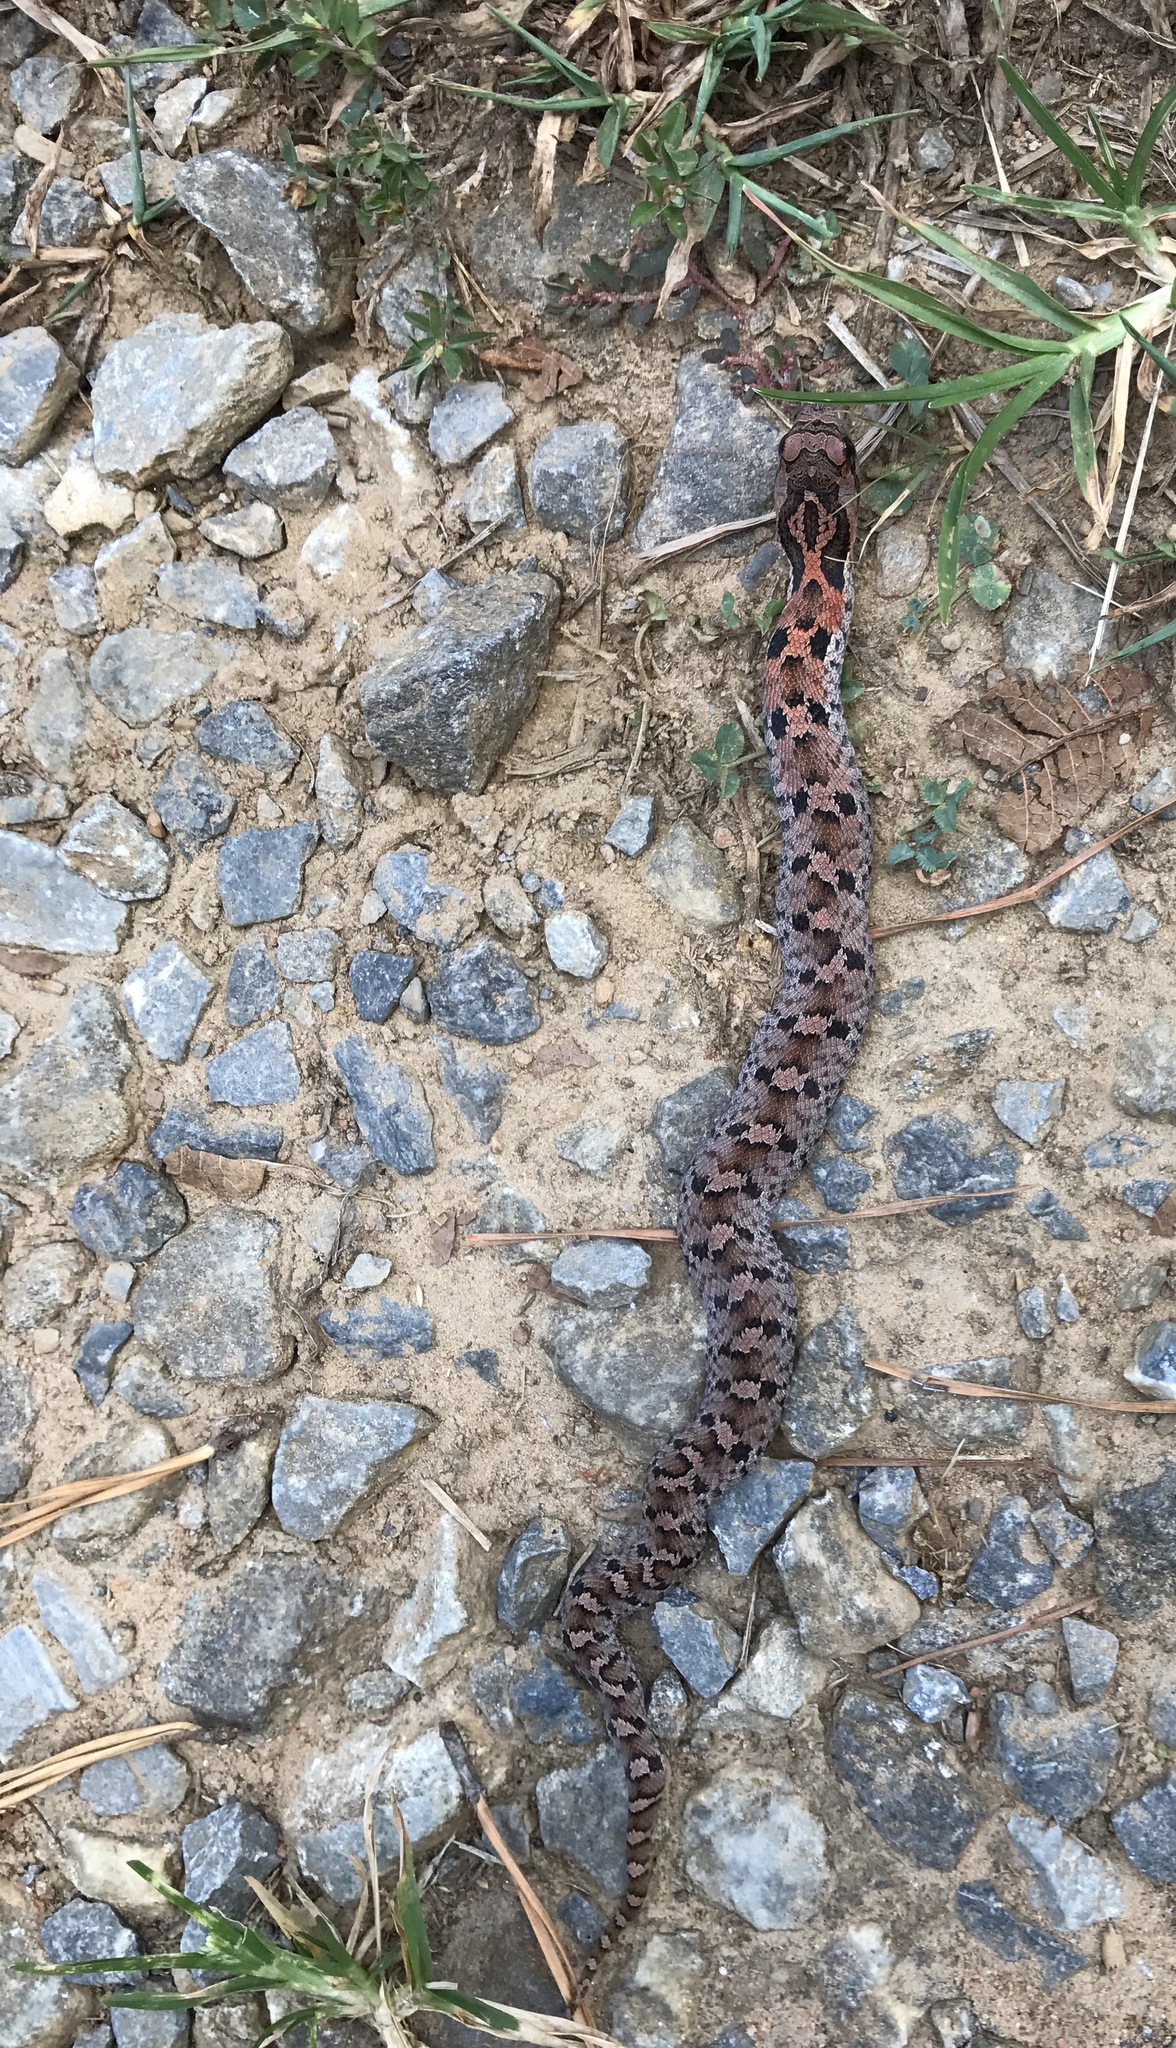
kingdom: Animalia
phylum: Chordata
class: Squamata
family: Colubridae
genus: Heterodon
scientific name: Heterodon platirhinos
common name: Eastern hognose snake
